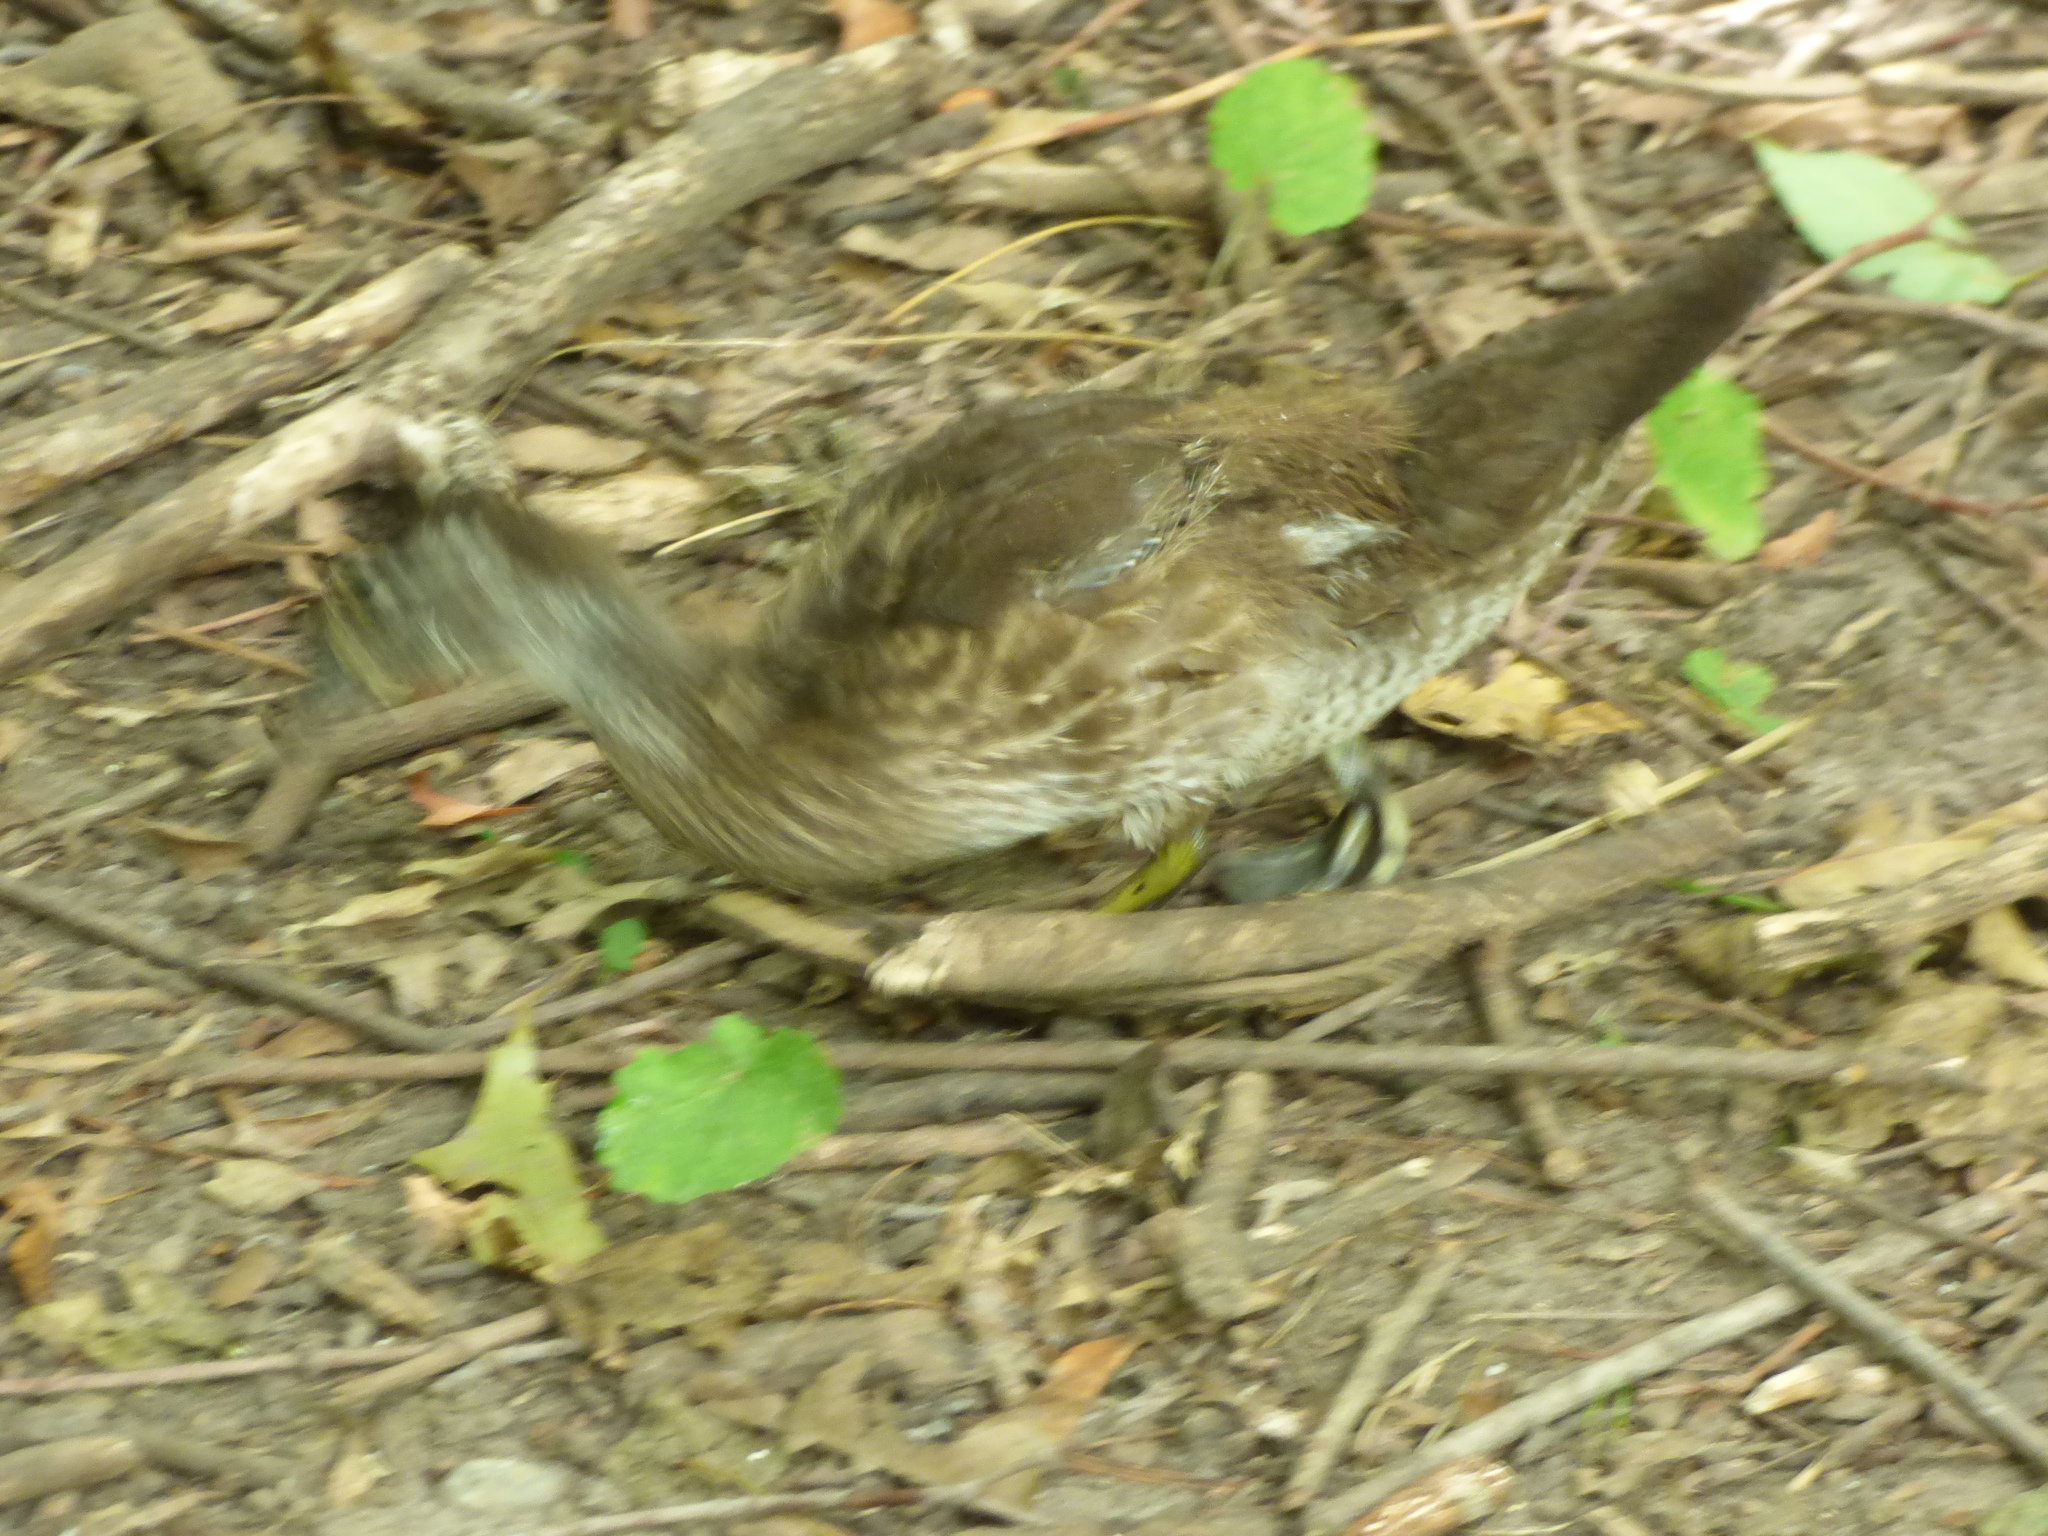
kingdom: Animalia
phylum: Chordata
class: Aves
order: Anseriformes
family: Anatidae
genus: Aix
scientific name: Aix sponsa
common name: Wood duck
